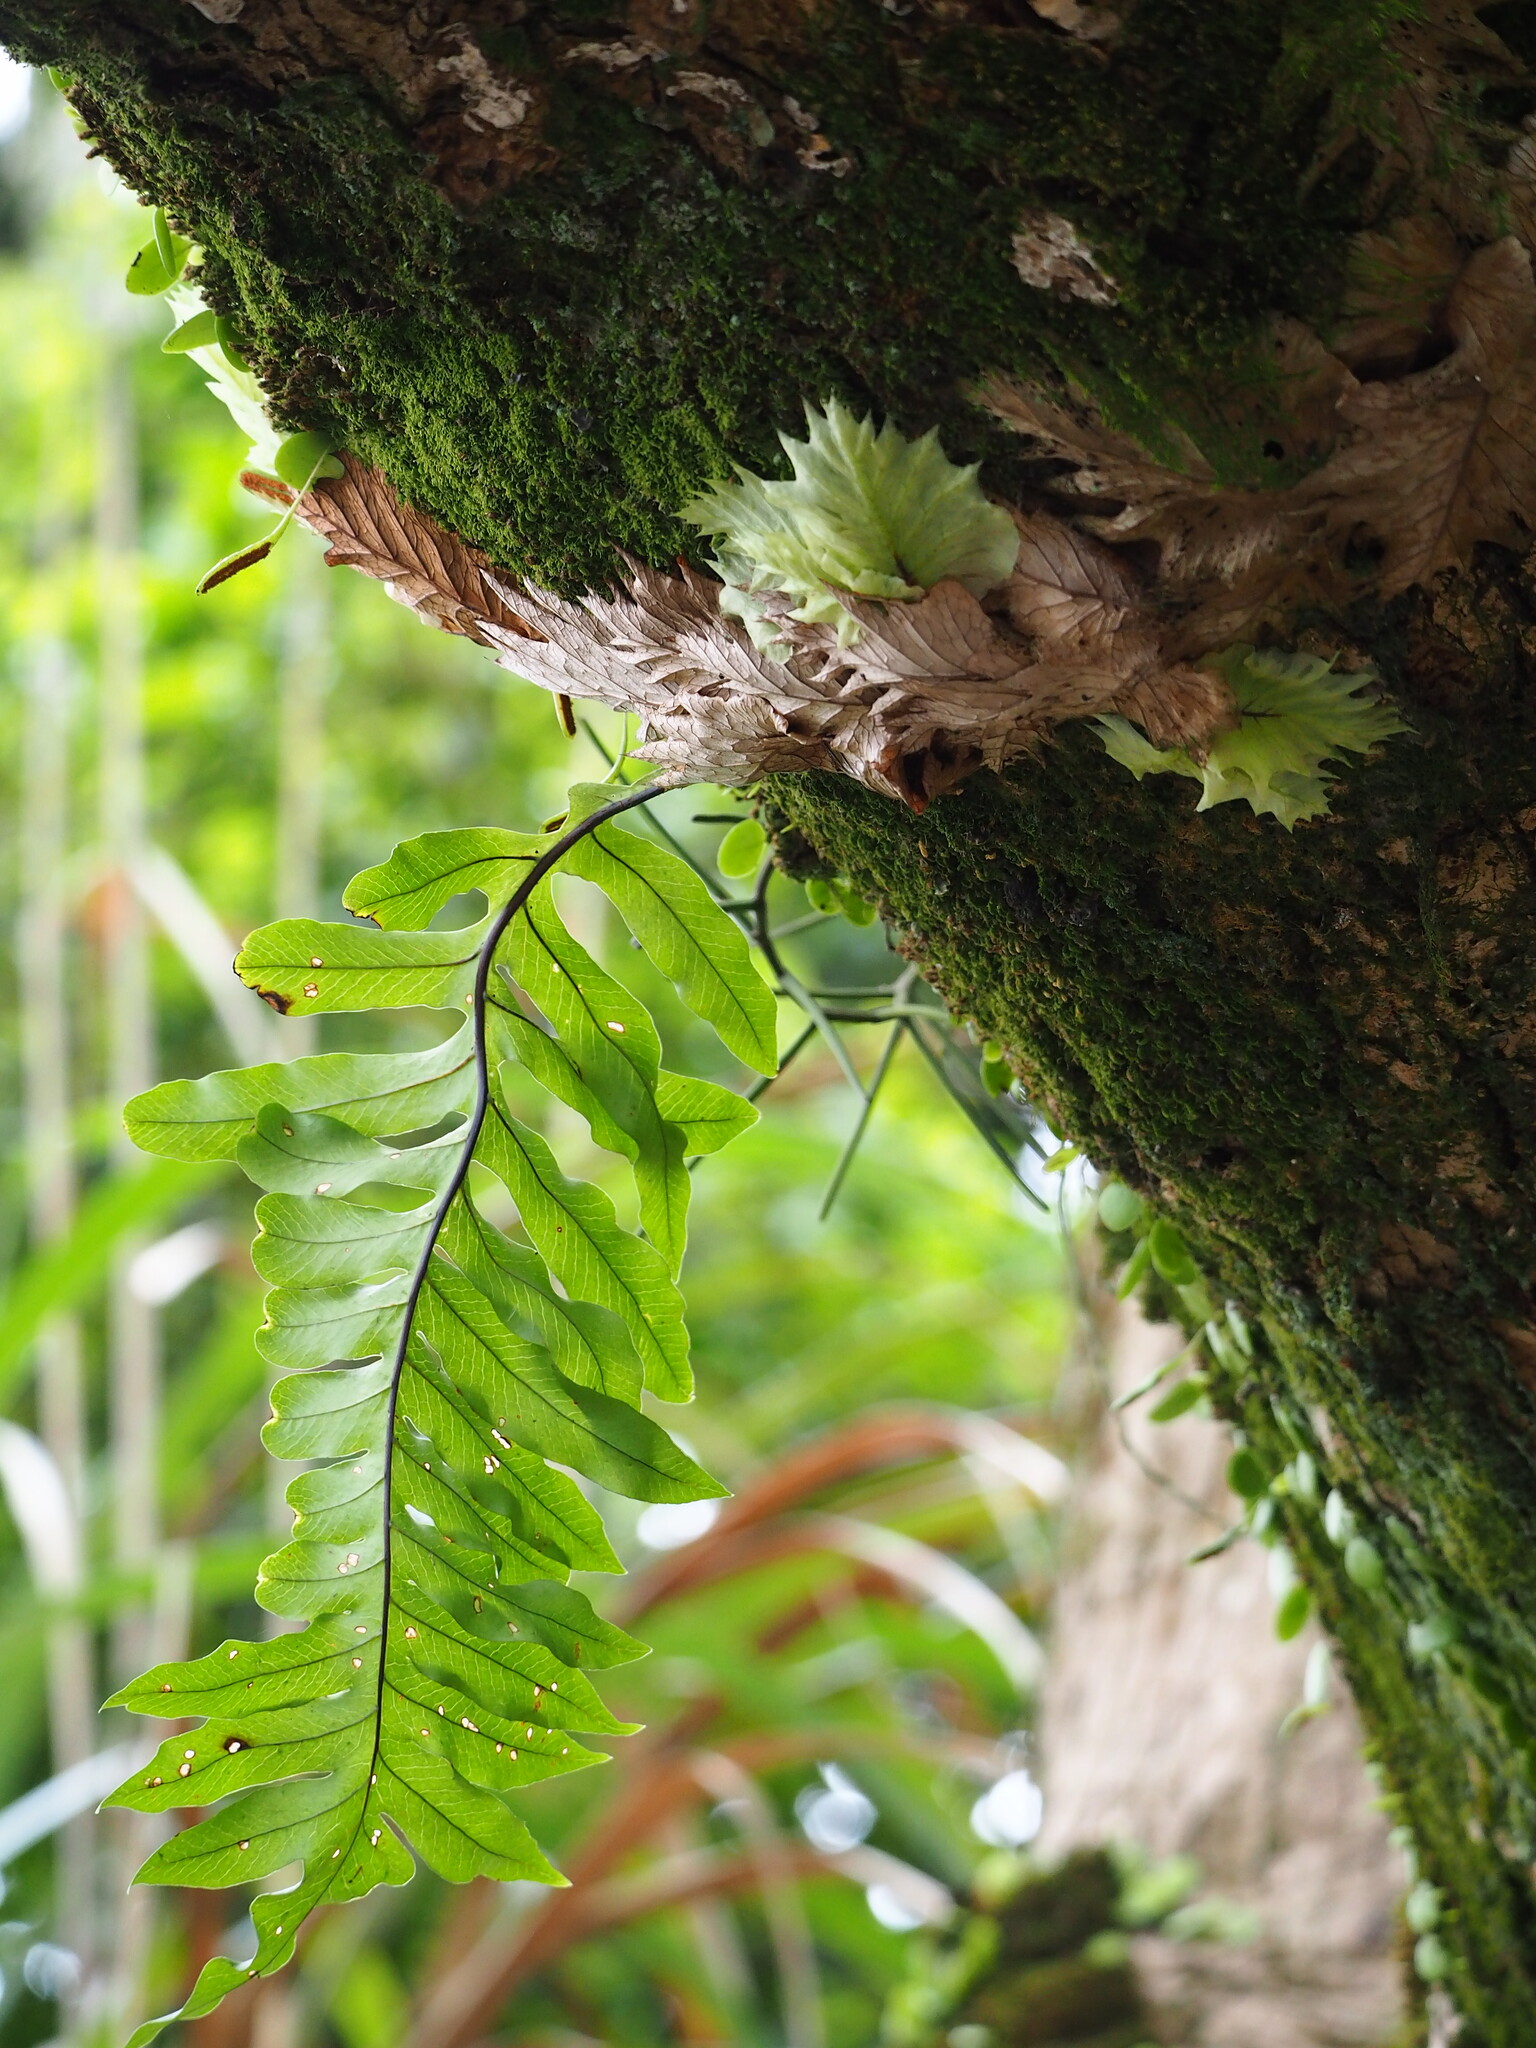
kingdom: Plantae
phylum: Tracheophyta
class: Polypodiopsida
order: Polypodiales
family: Polypodiaceae
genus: Drynaria
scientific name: Drynaria roosii
